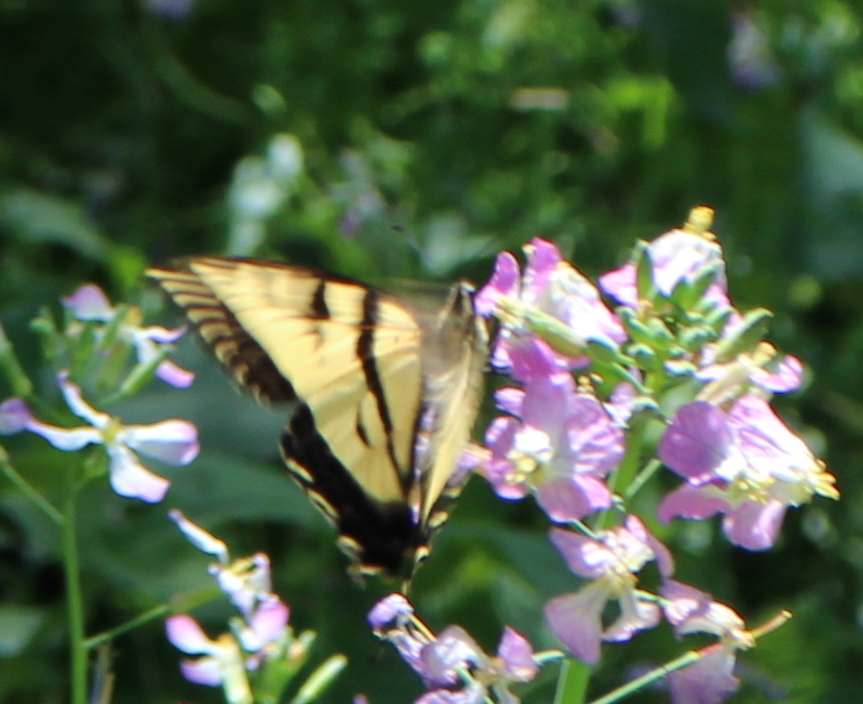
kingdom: Animalia
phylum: Arthropoda
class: Insecta
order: Lepidoptera
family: Papilionidae
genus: Papilio
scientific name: Papilio rutulus
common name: Western tiger swallowtail
